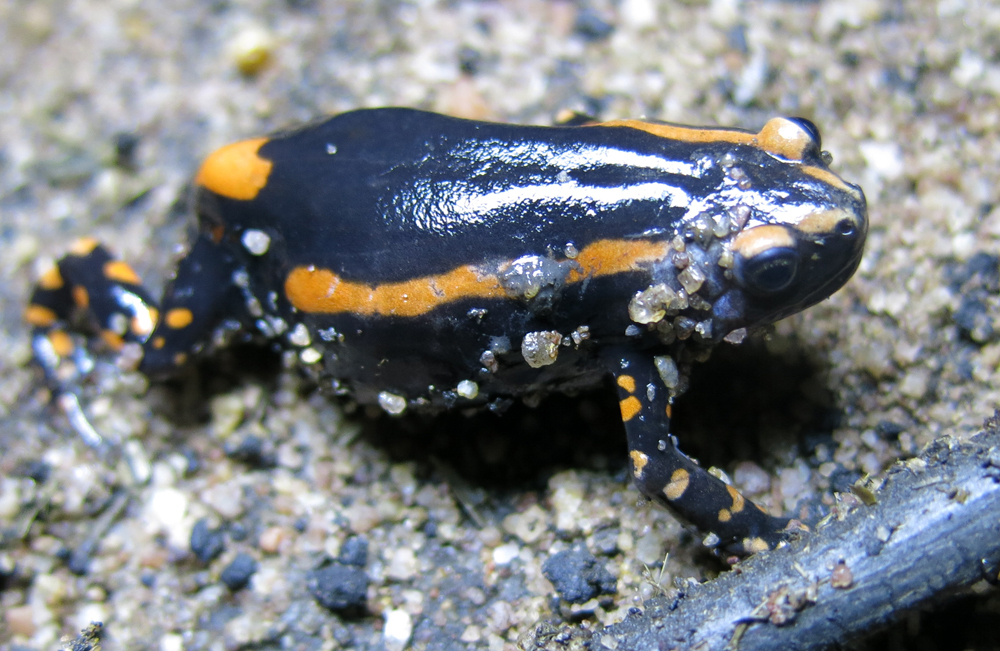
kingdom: Animalia
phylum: Chordata
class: Amphibia
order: Anura
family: Microhylidae
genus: Phrynomantis
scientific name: Phrynomantis bifasciatus
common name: Banded rubber frog
